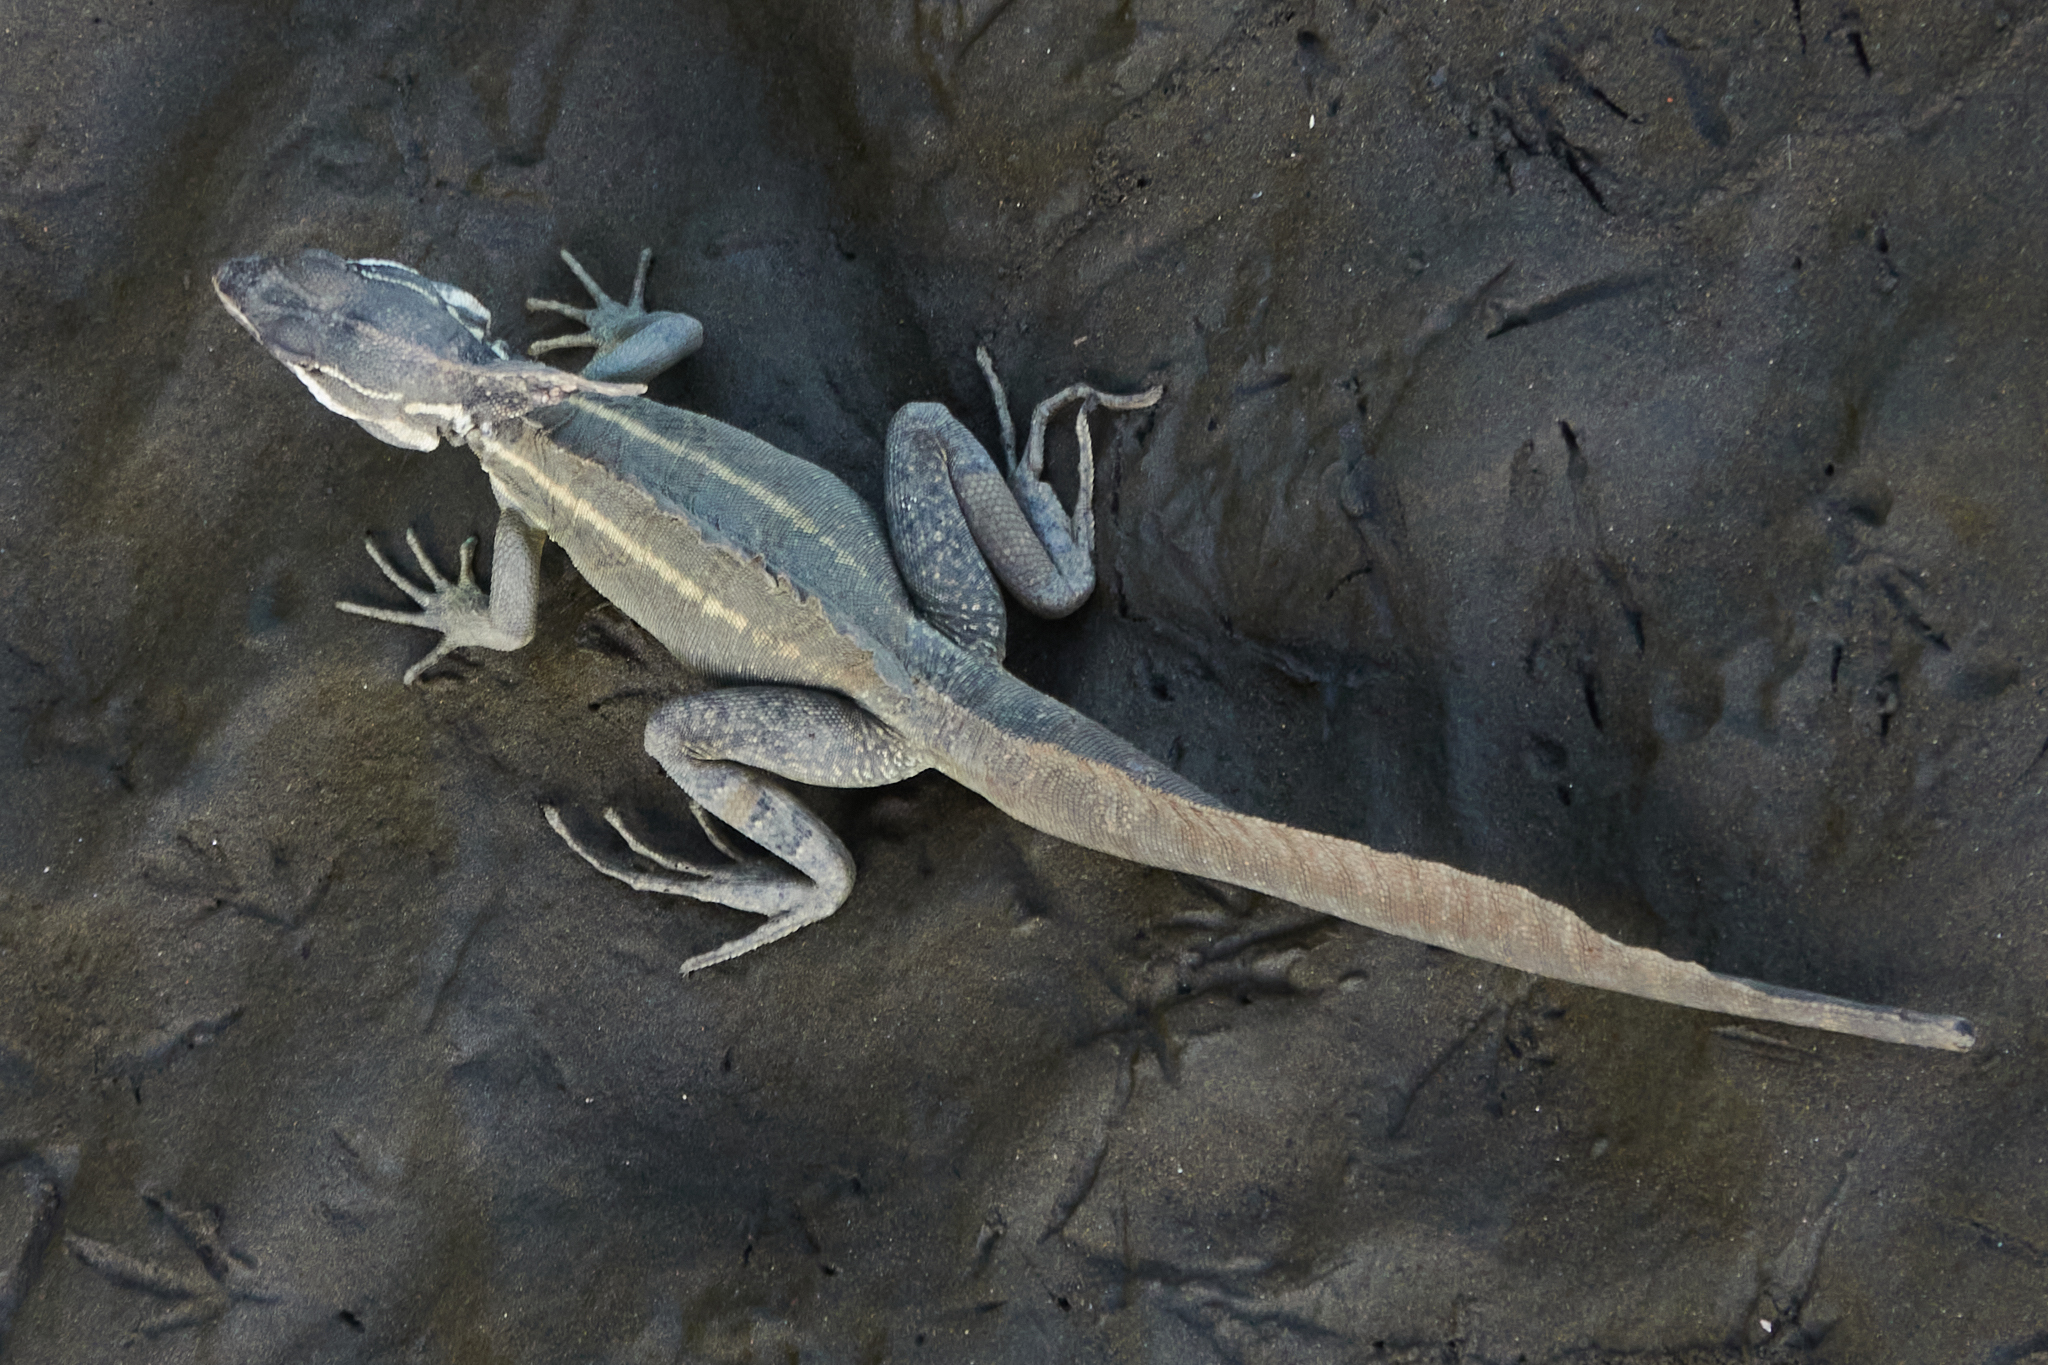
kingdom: Animalia
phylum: Chordata
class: Squamata
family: Corytophanidae
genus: Basiliscus
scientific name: Basiliscus basiliscus
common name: Common basilisk
